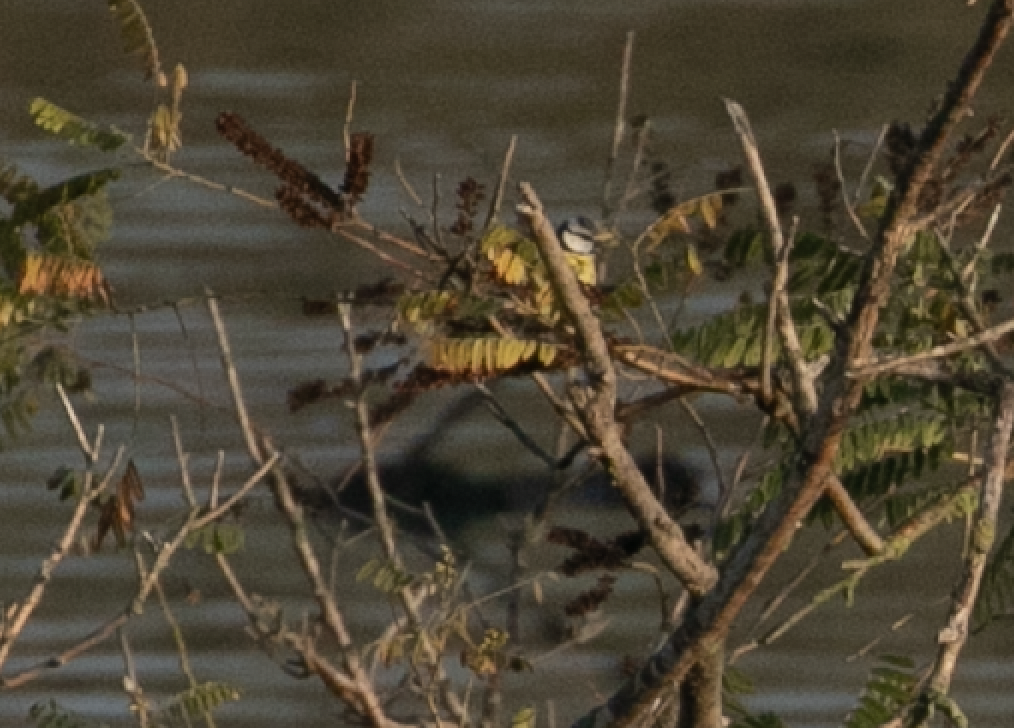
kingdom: Animalia
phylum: Chordata
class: Aves
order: Passeriformes
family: Paridae
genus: Cyanistes
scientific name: Cyanistes caeruleus
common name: Eurasian blue tit
